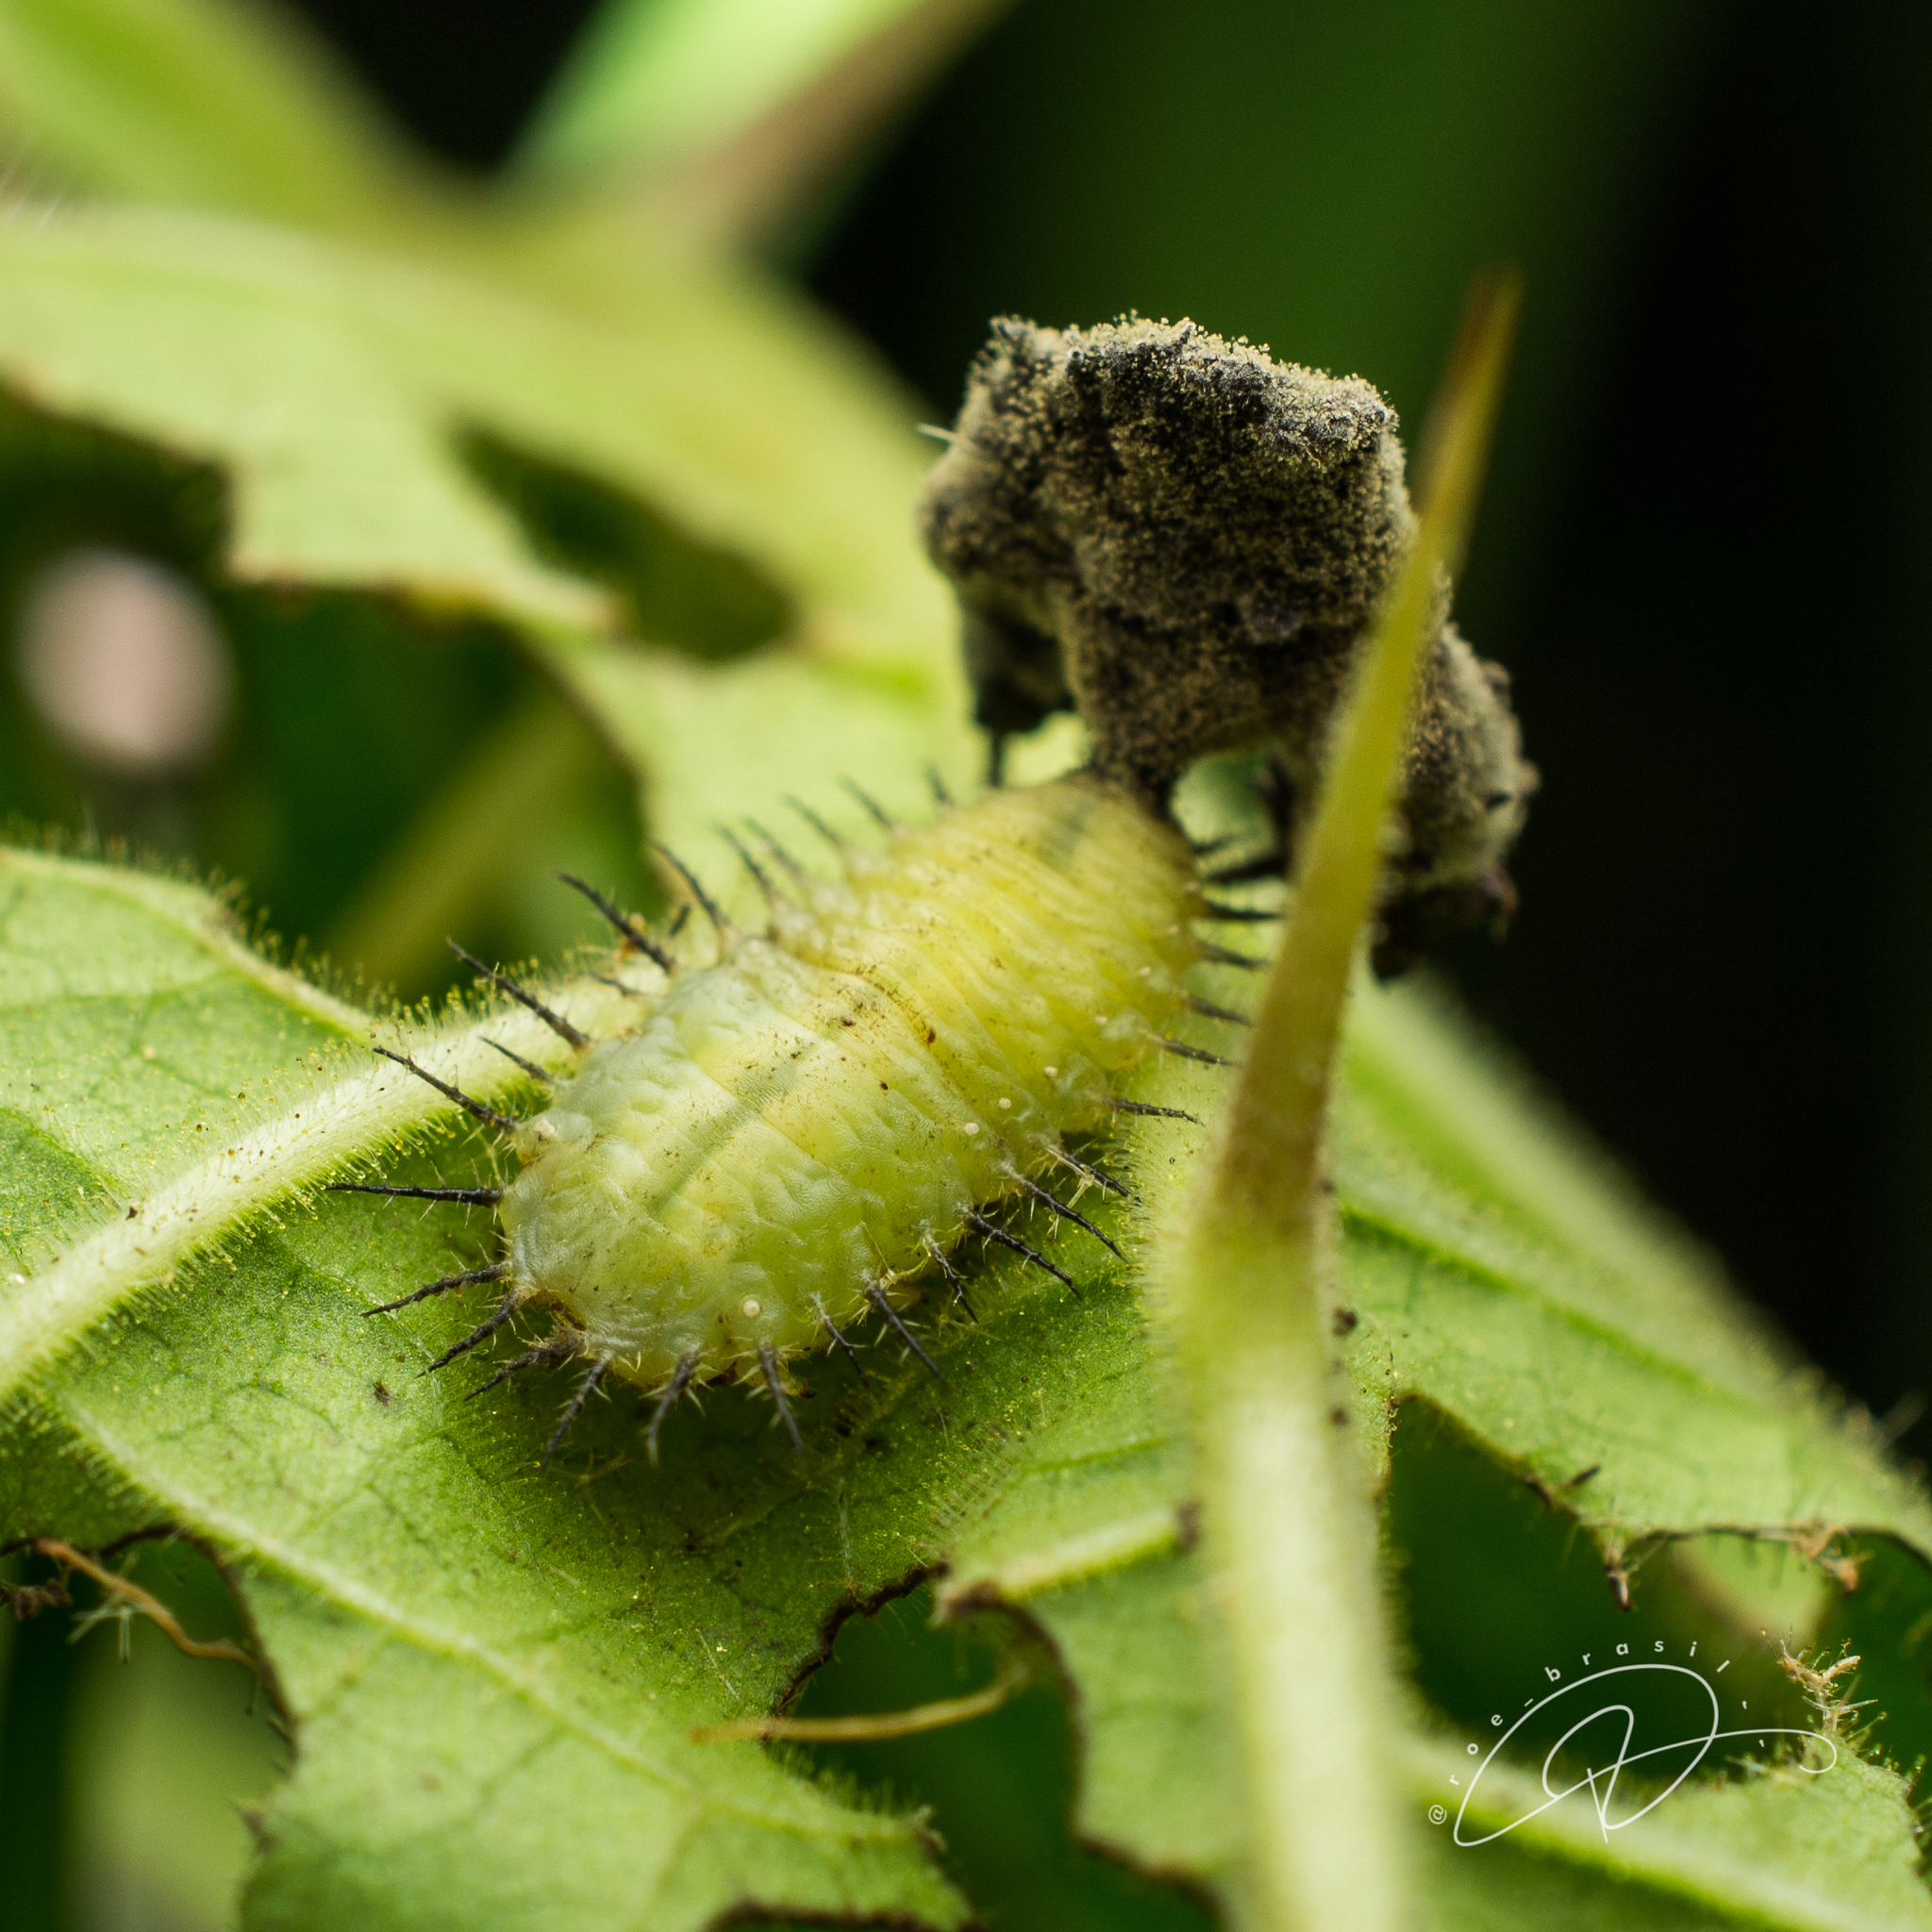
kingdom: Animalia
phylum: Arthropoda
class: Insecta
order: Coleoptera
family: Chrysomelidae
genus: Metriona
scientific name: Metriona elatior
